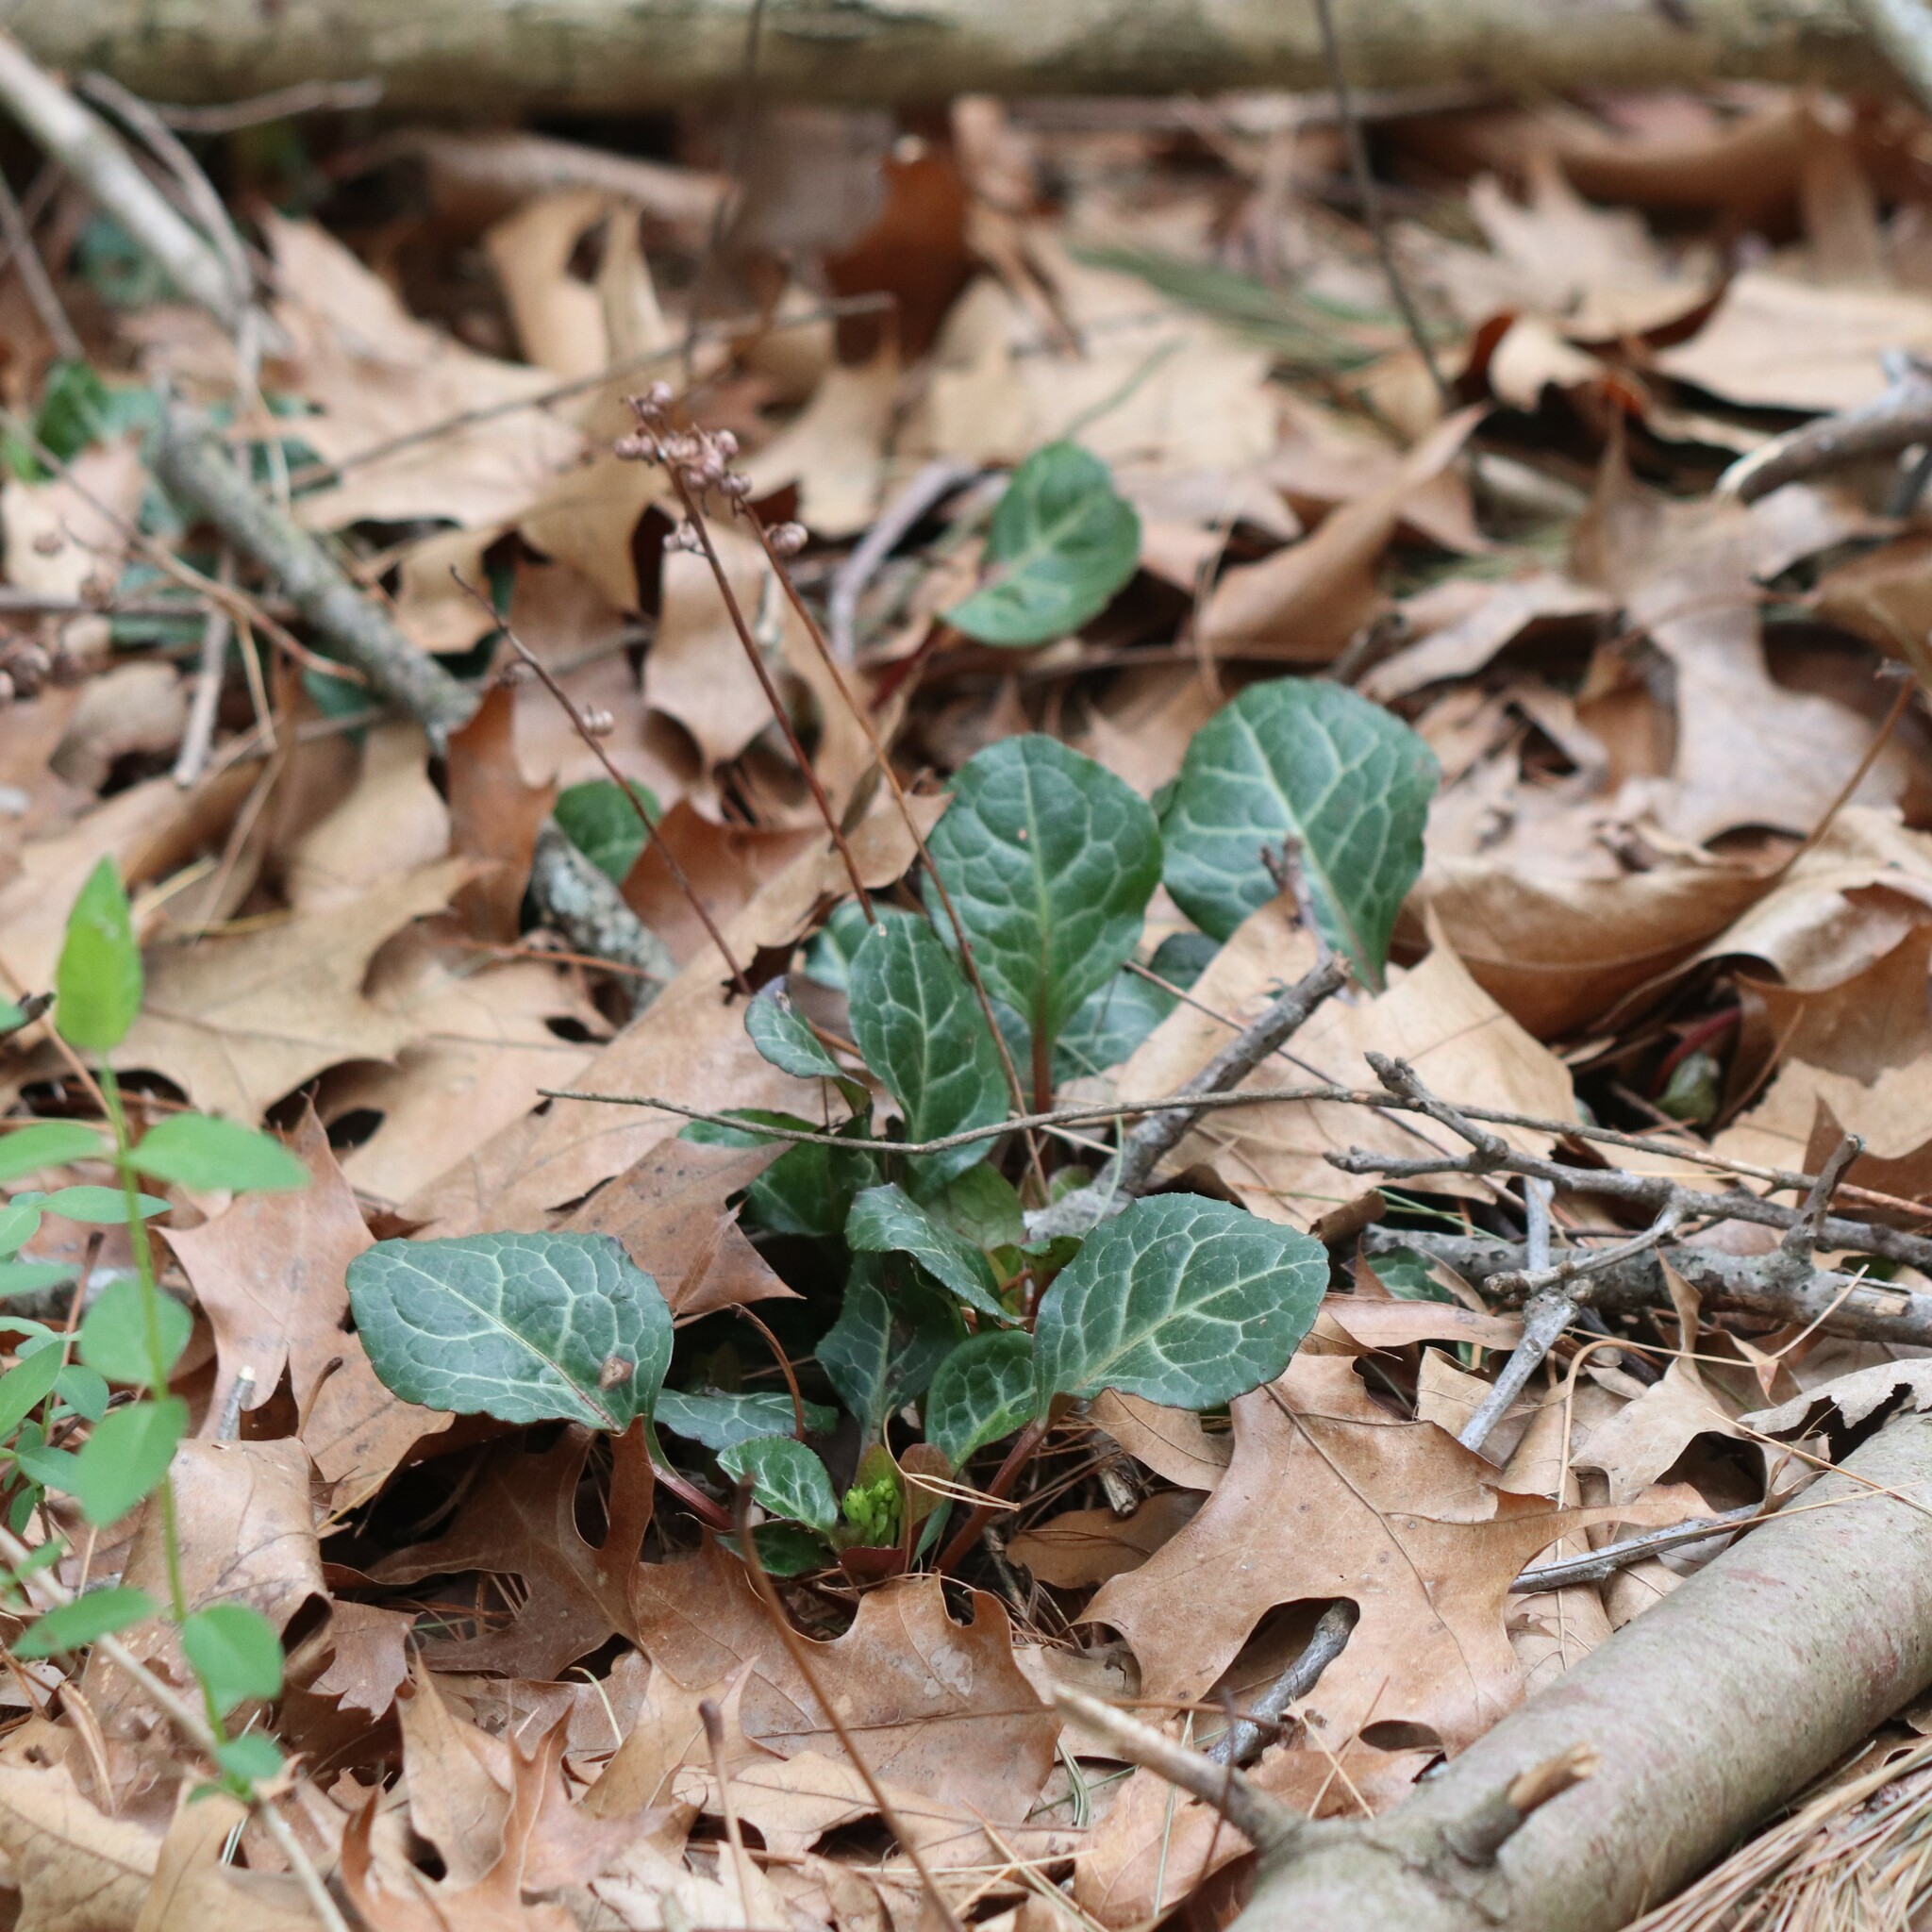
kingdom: Plantae
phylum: Tracheophyta
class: Magnoliopsida
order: Ericales
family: Ericaceae
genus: Pyrola
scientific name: Pyrola americana
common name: American wintergreen
